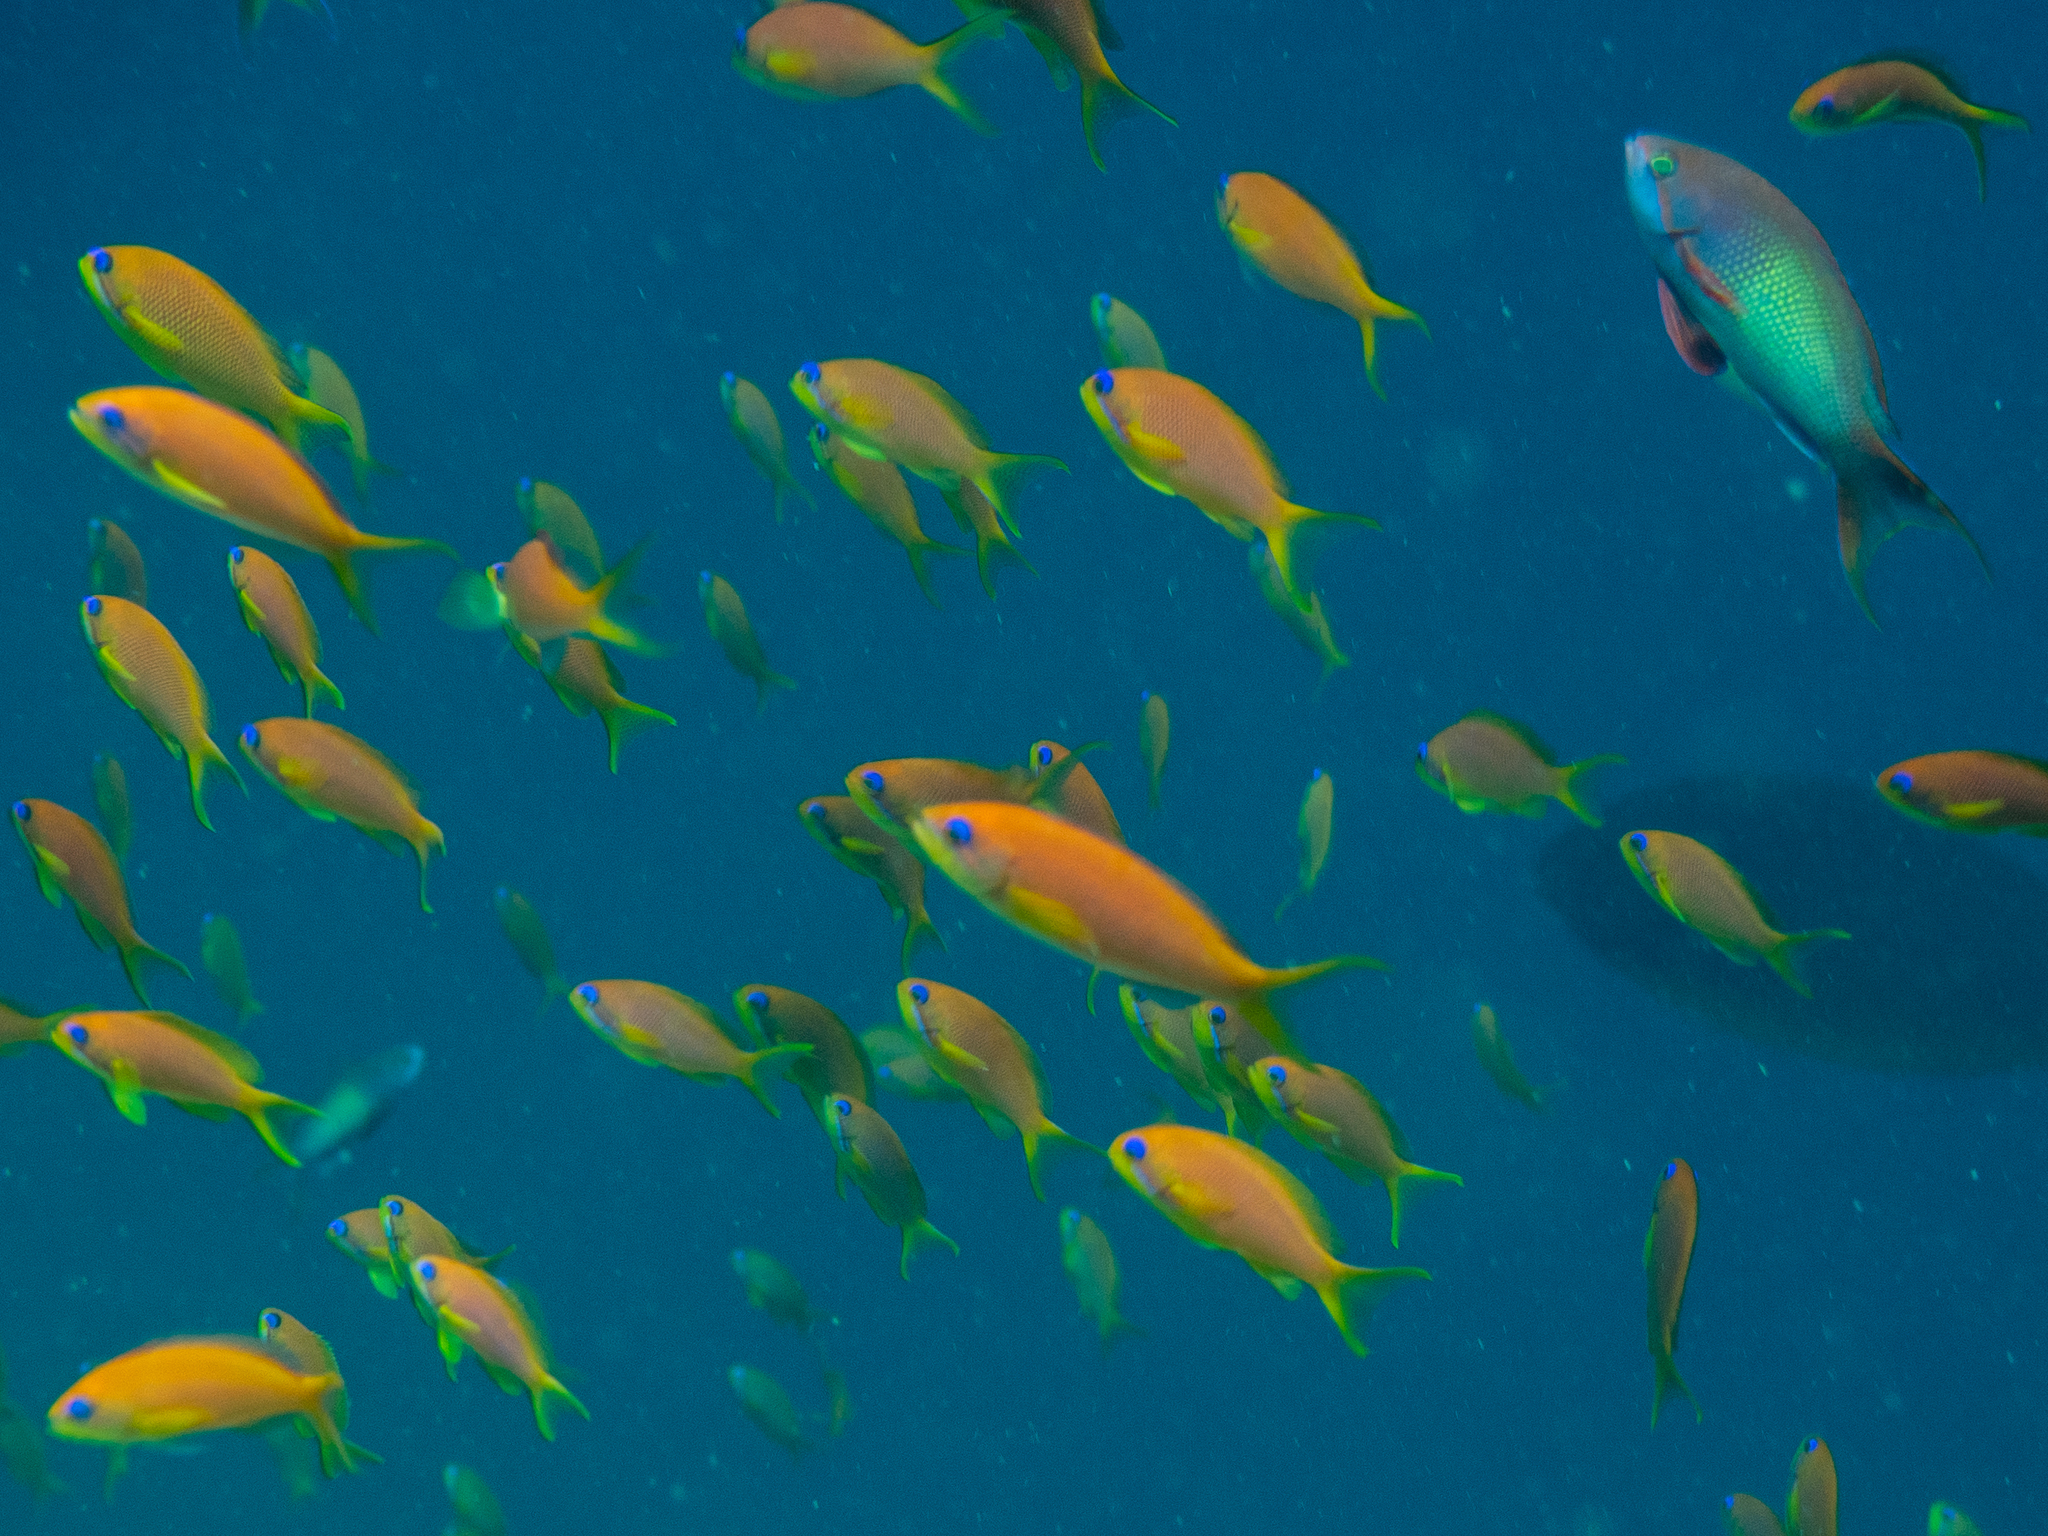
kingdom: Animalia
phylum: Chordata
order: Perciformes
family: Serranidae
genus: Pseudanthias
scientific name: Pseudanthias squamipinnis
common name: Scalefin anthias
